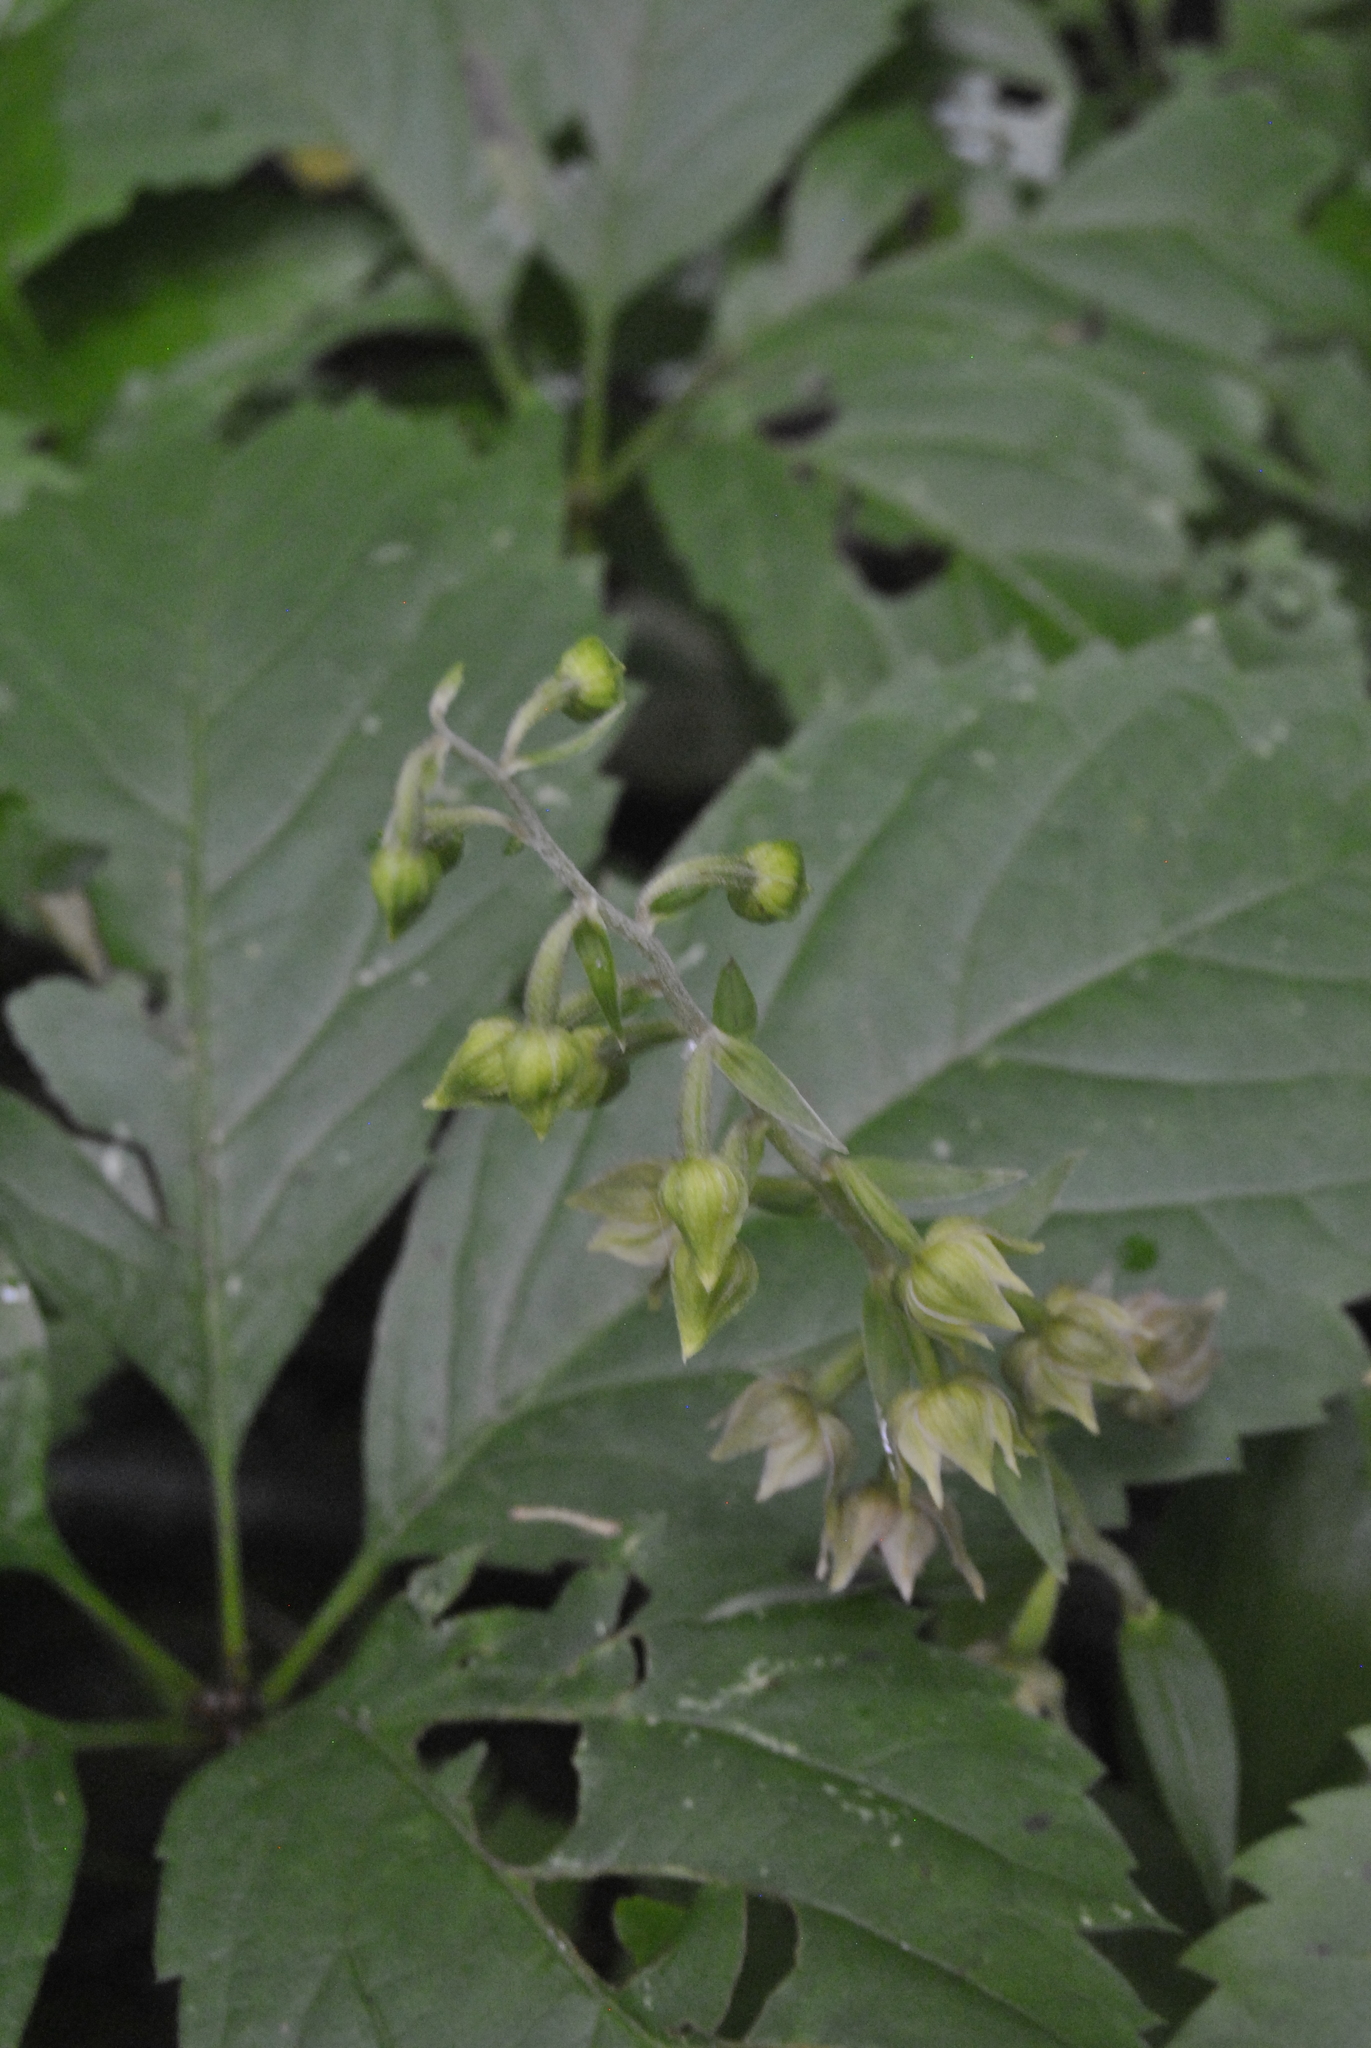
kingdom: Plantae
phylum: Tracheophyta
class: Liliopsida
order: Asparagales
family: Orchidaceae
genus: Epipactis
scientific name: Epipactis helleborine
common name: Broad-leaved helleborine
